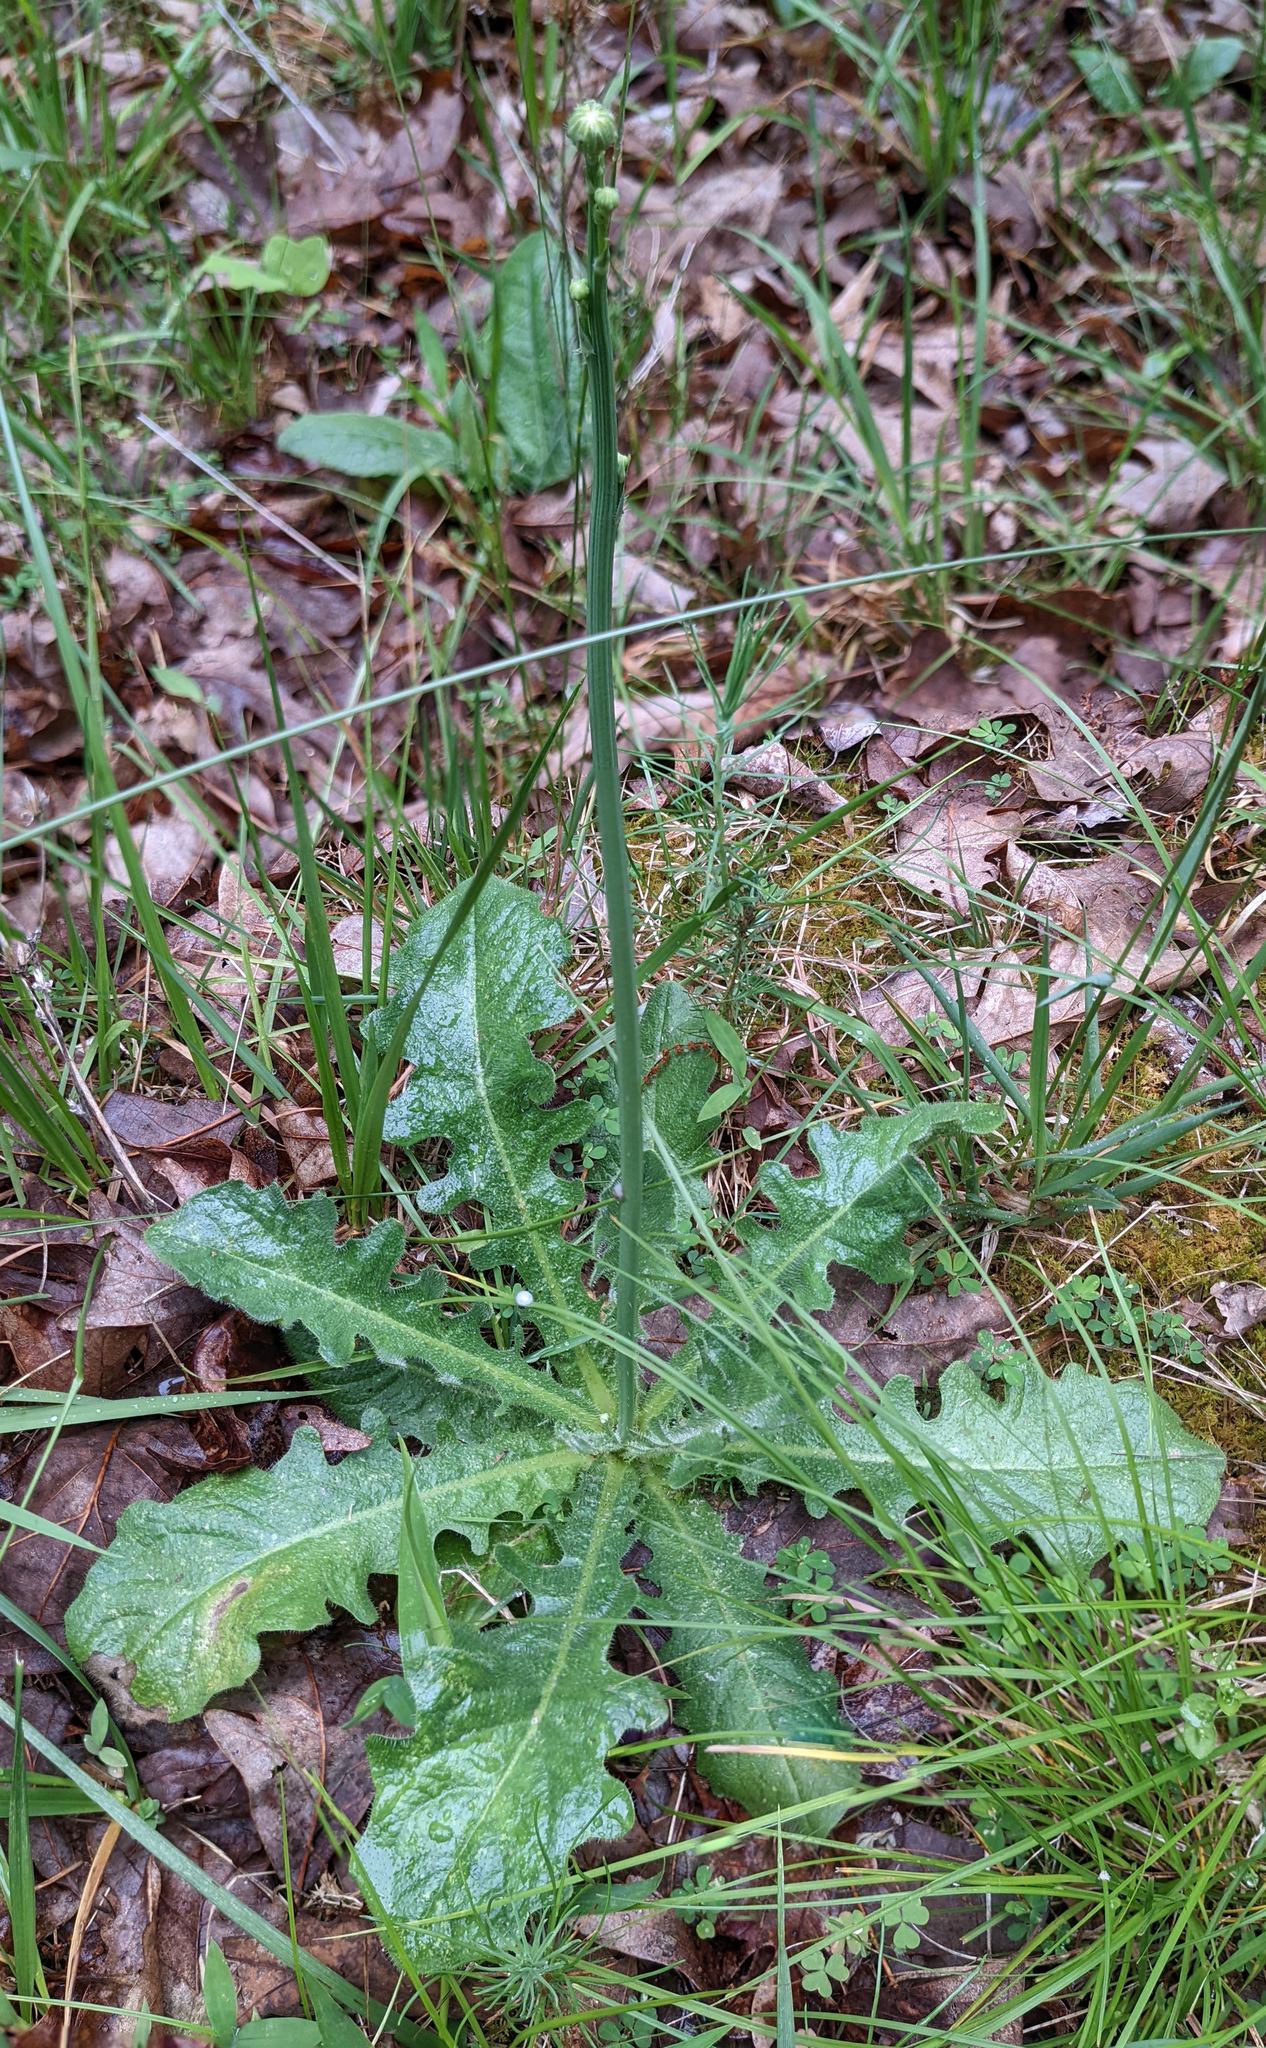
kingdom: Plantae
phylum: Tracheophyta
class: Magnoliopsida
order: Asterales
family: Asteraceae
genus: Hypochaeris
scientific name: Hypochaeris radicata
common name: Flatweed
